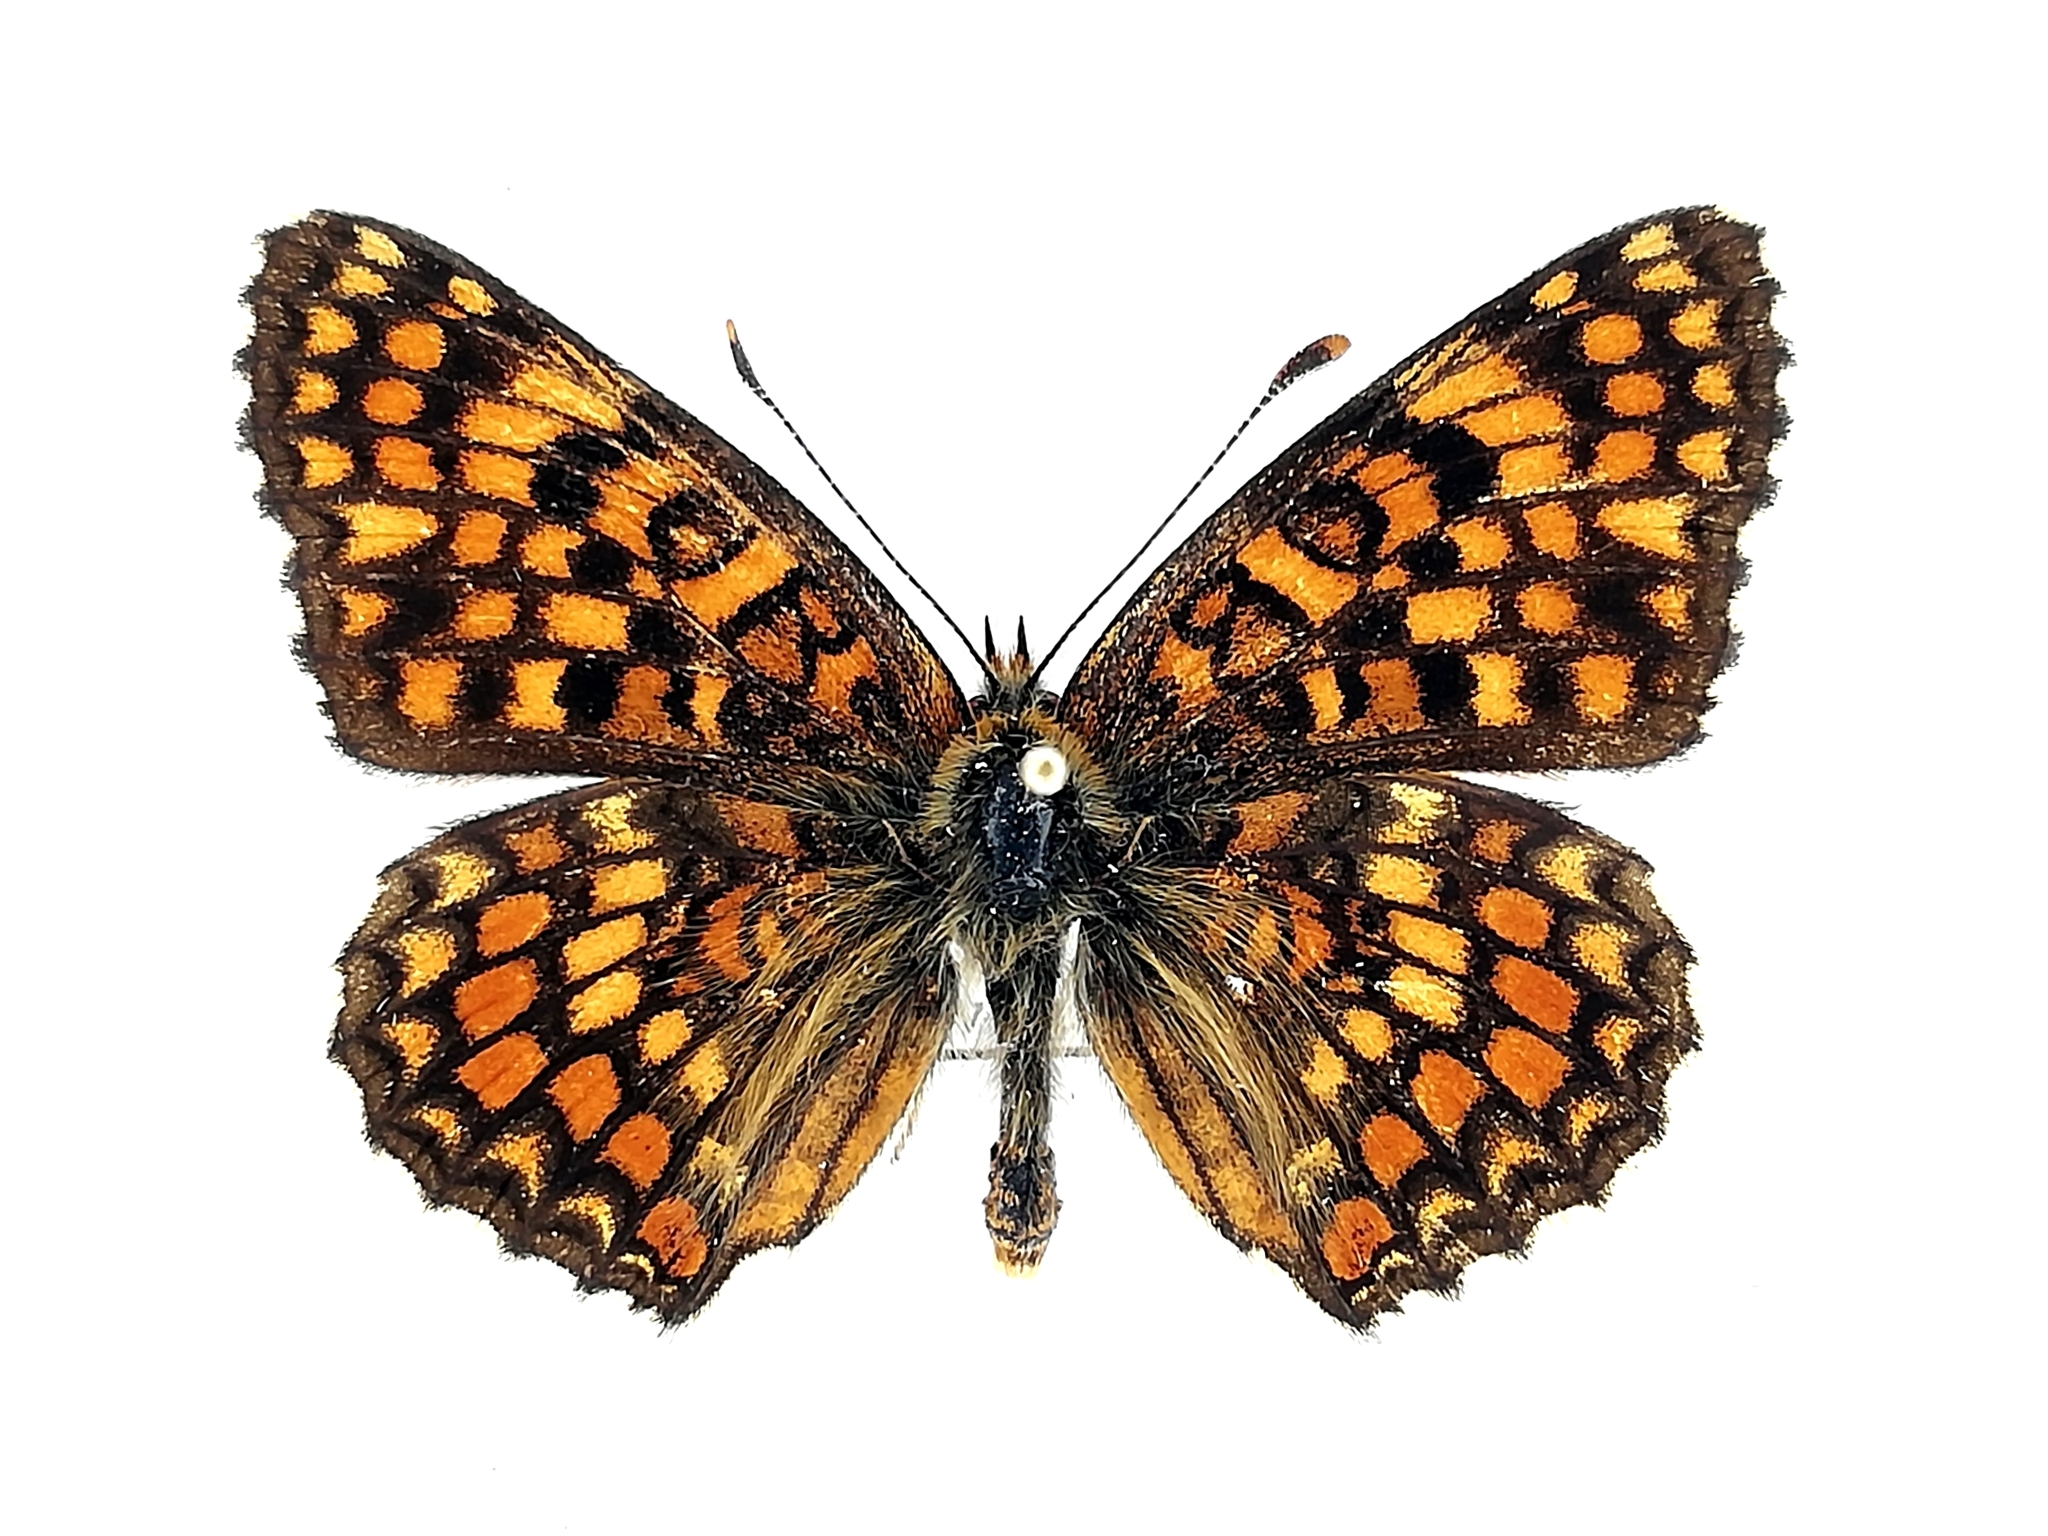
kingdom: Animalia
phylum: Arthropoda
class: Insecta
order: Lepidoptera
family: Nymphalidae
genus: Melitaea
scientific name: Melitaea phoebe
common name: Knapweed fritillary
